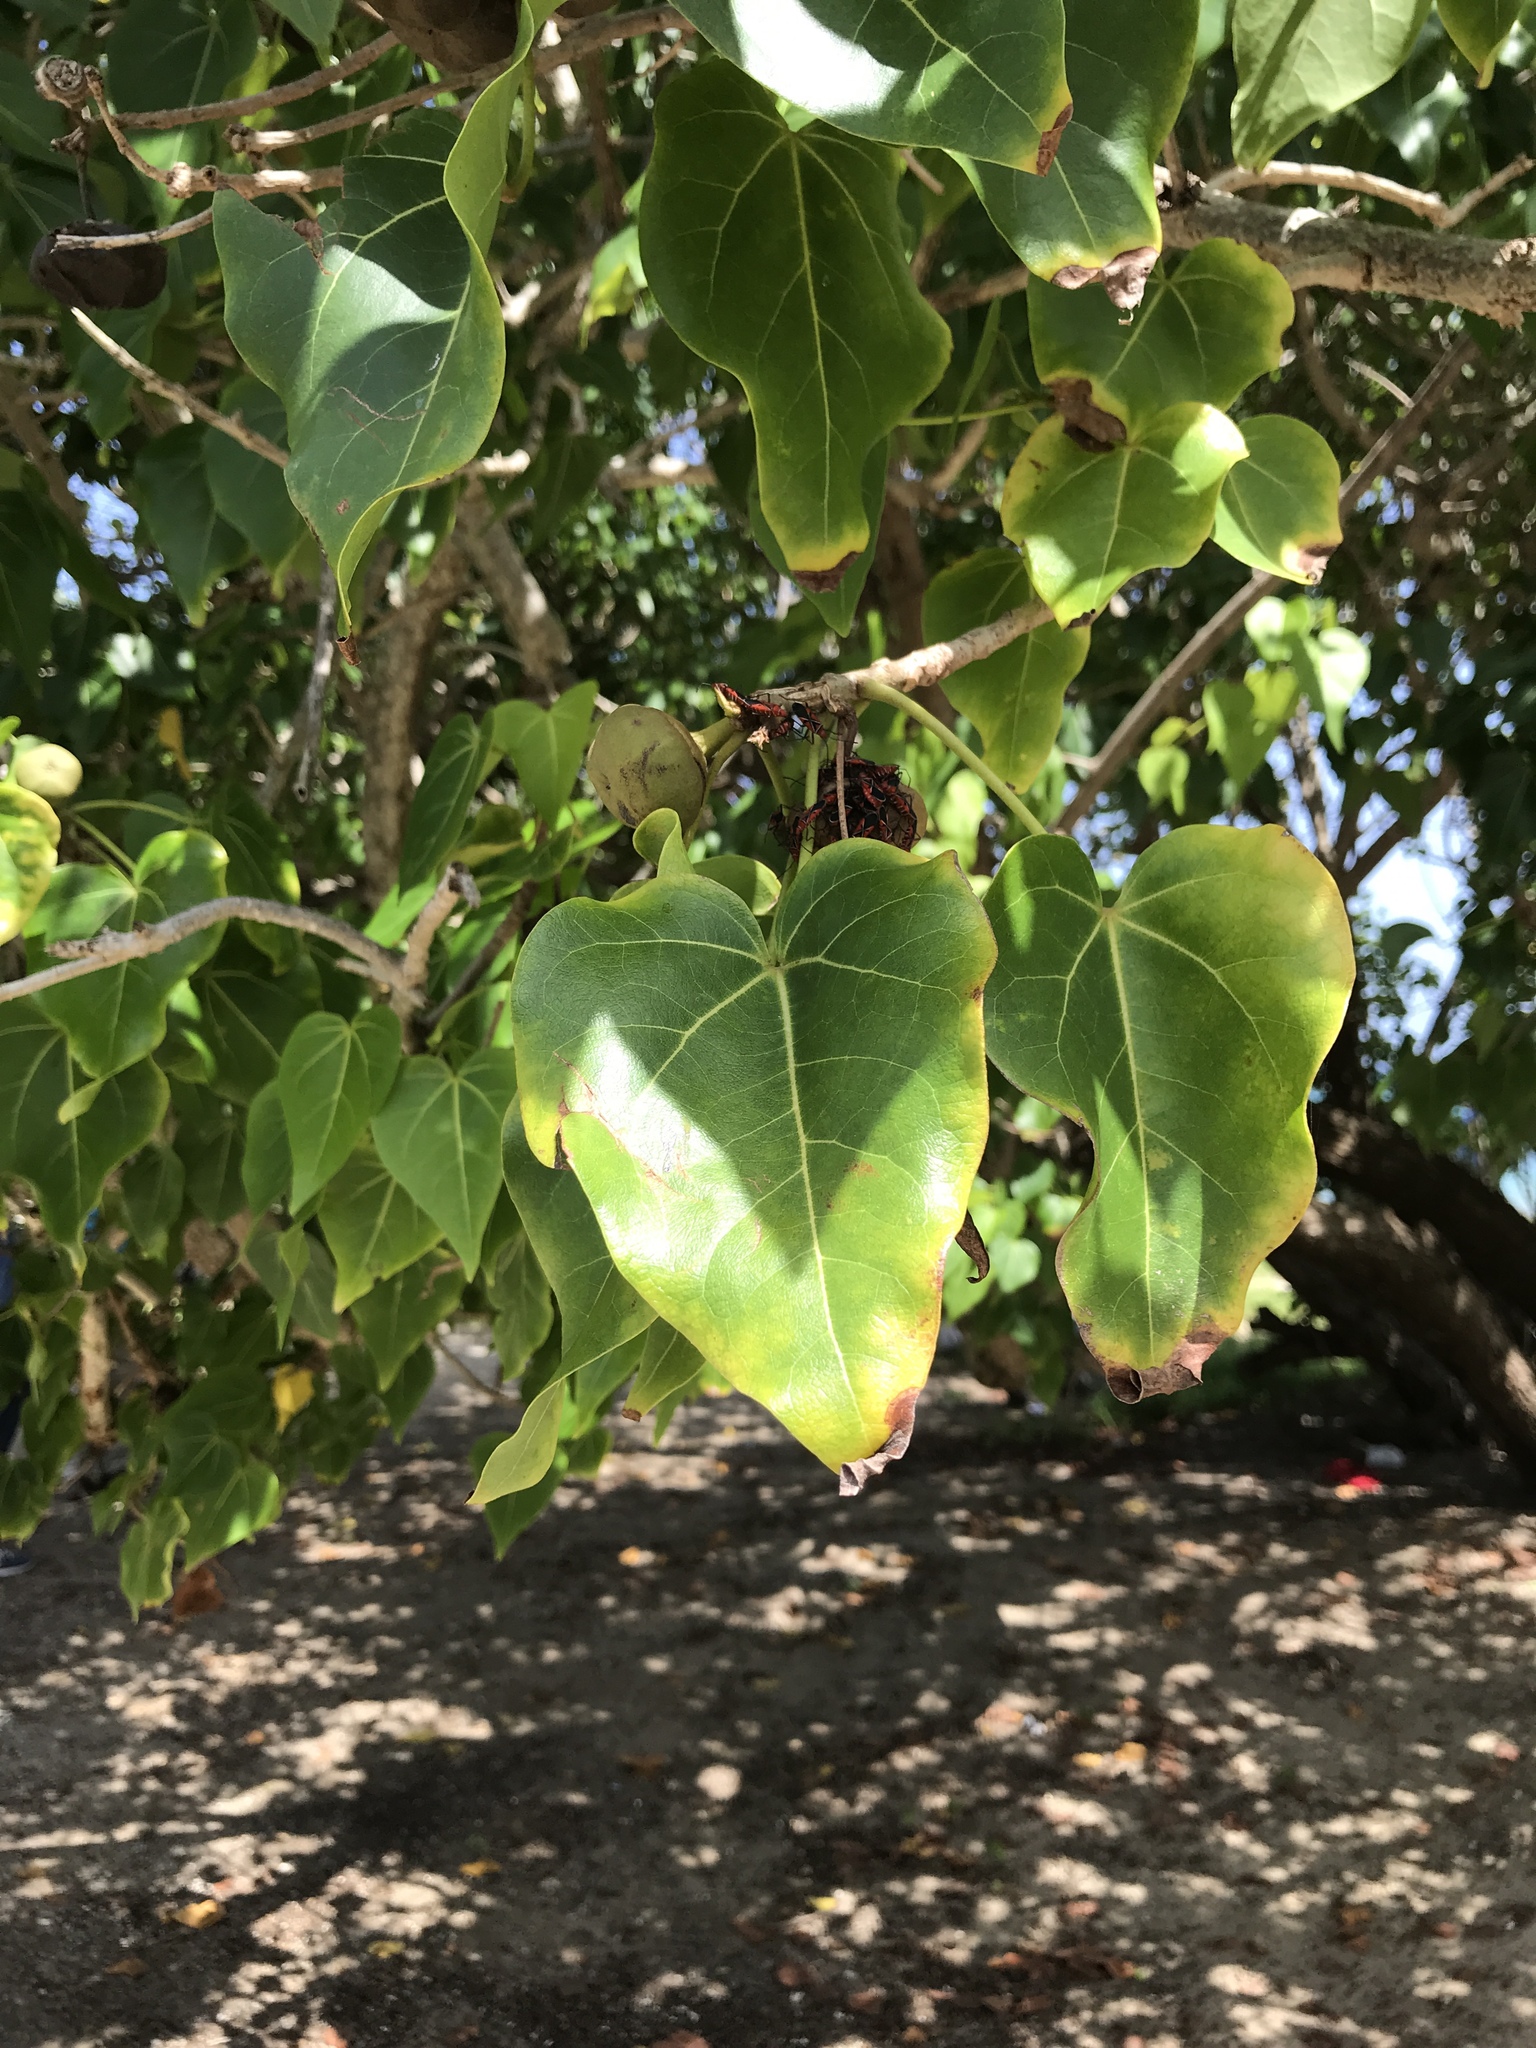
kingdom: Plantae
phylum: Tracheophyta
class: Magnoliopsida
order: Malvales
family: Malvaceae
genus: Thespesia
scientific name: Thespesia populnea
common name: Seaside mahoe
